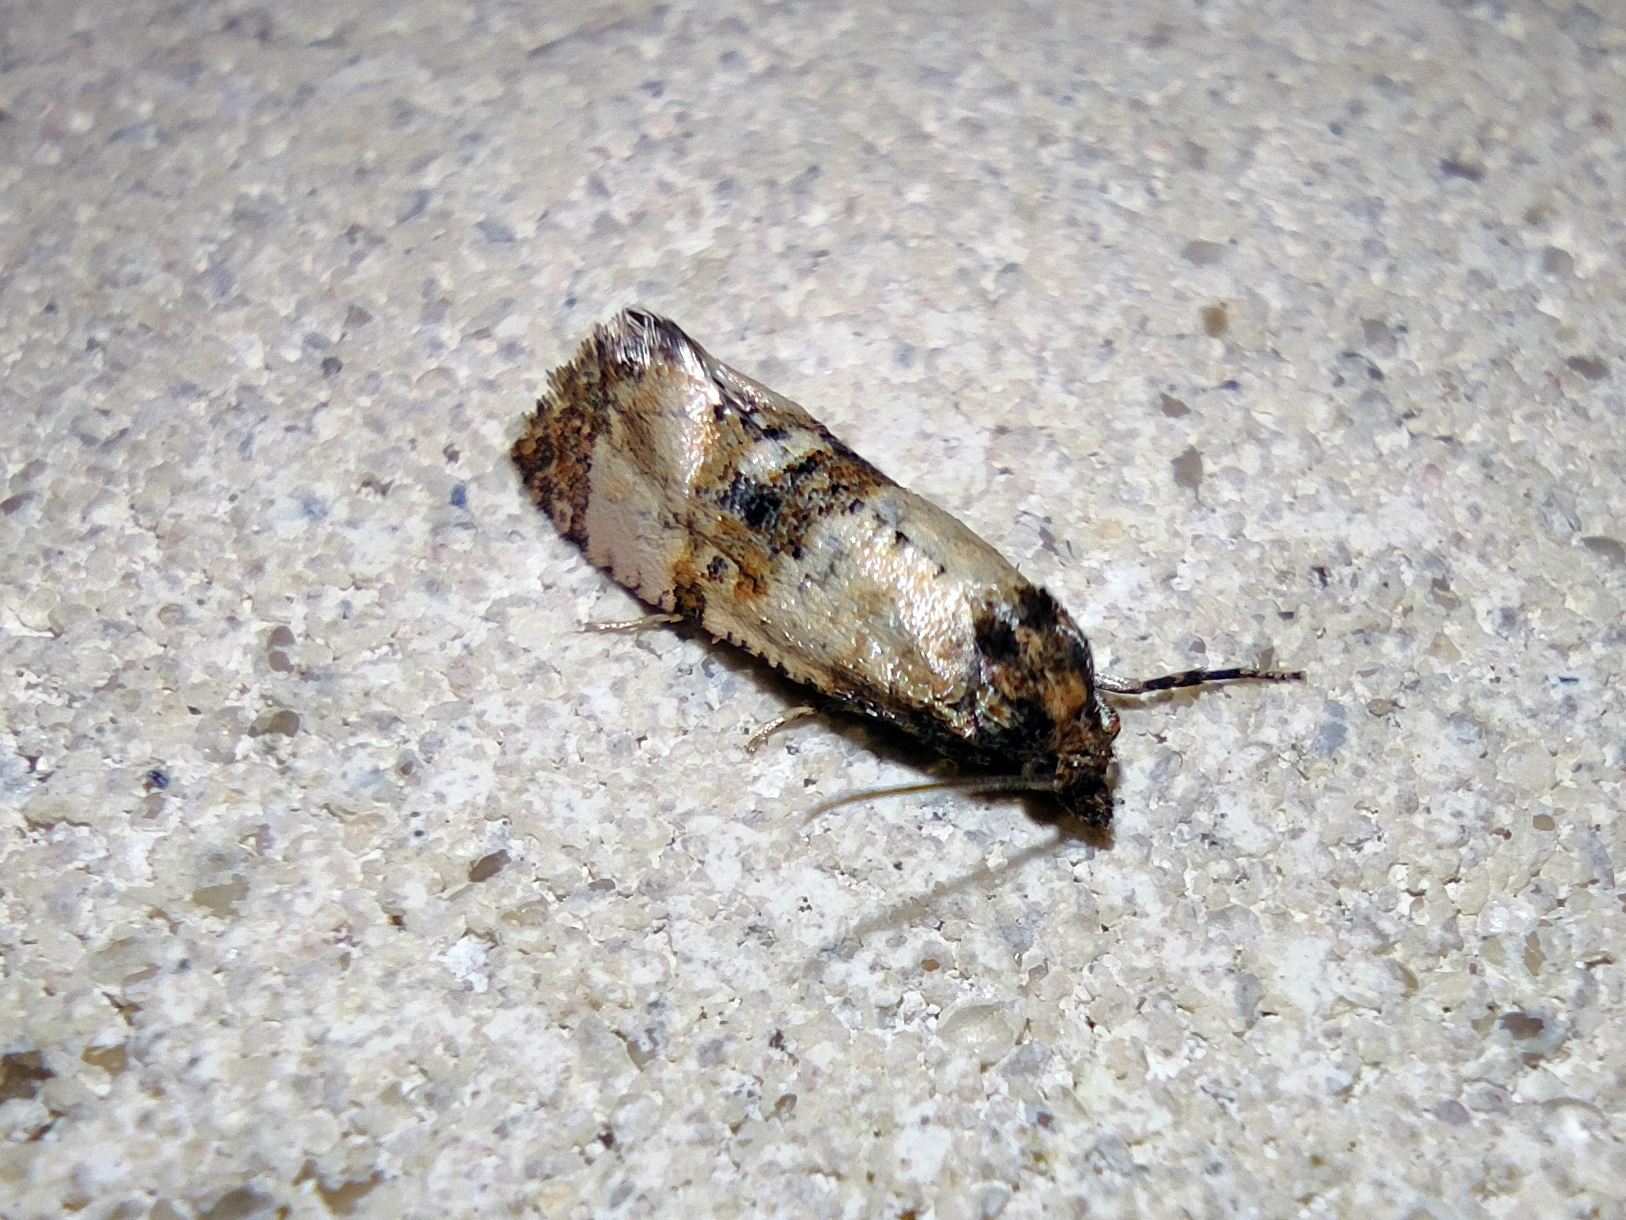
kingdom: Animalia
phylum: Arthropoda
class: Insecta
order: Lepidoptera
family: Tortricidae
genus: Cochylis
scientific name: Cochylis atricapitana
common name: Tortricid moth
